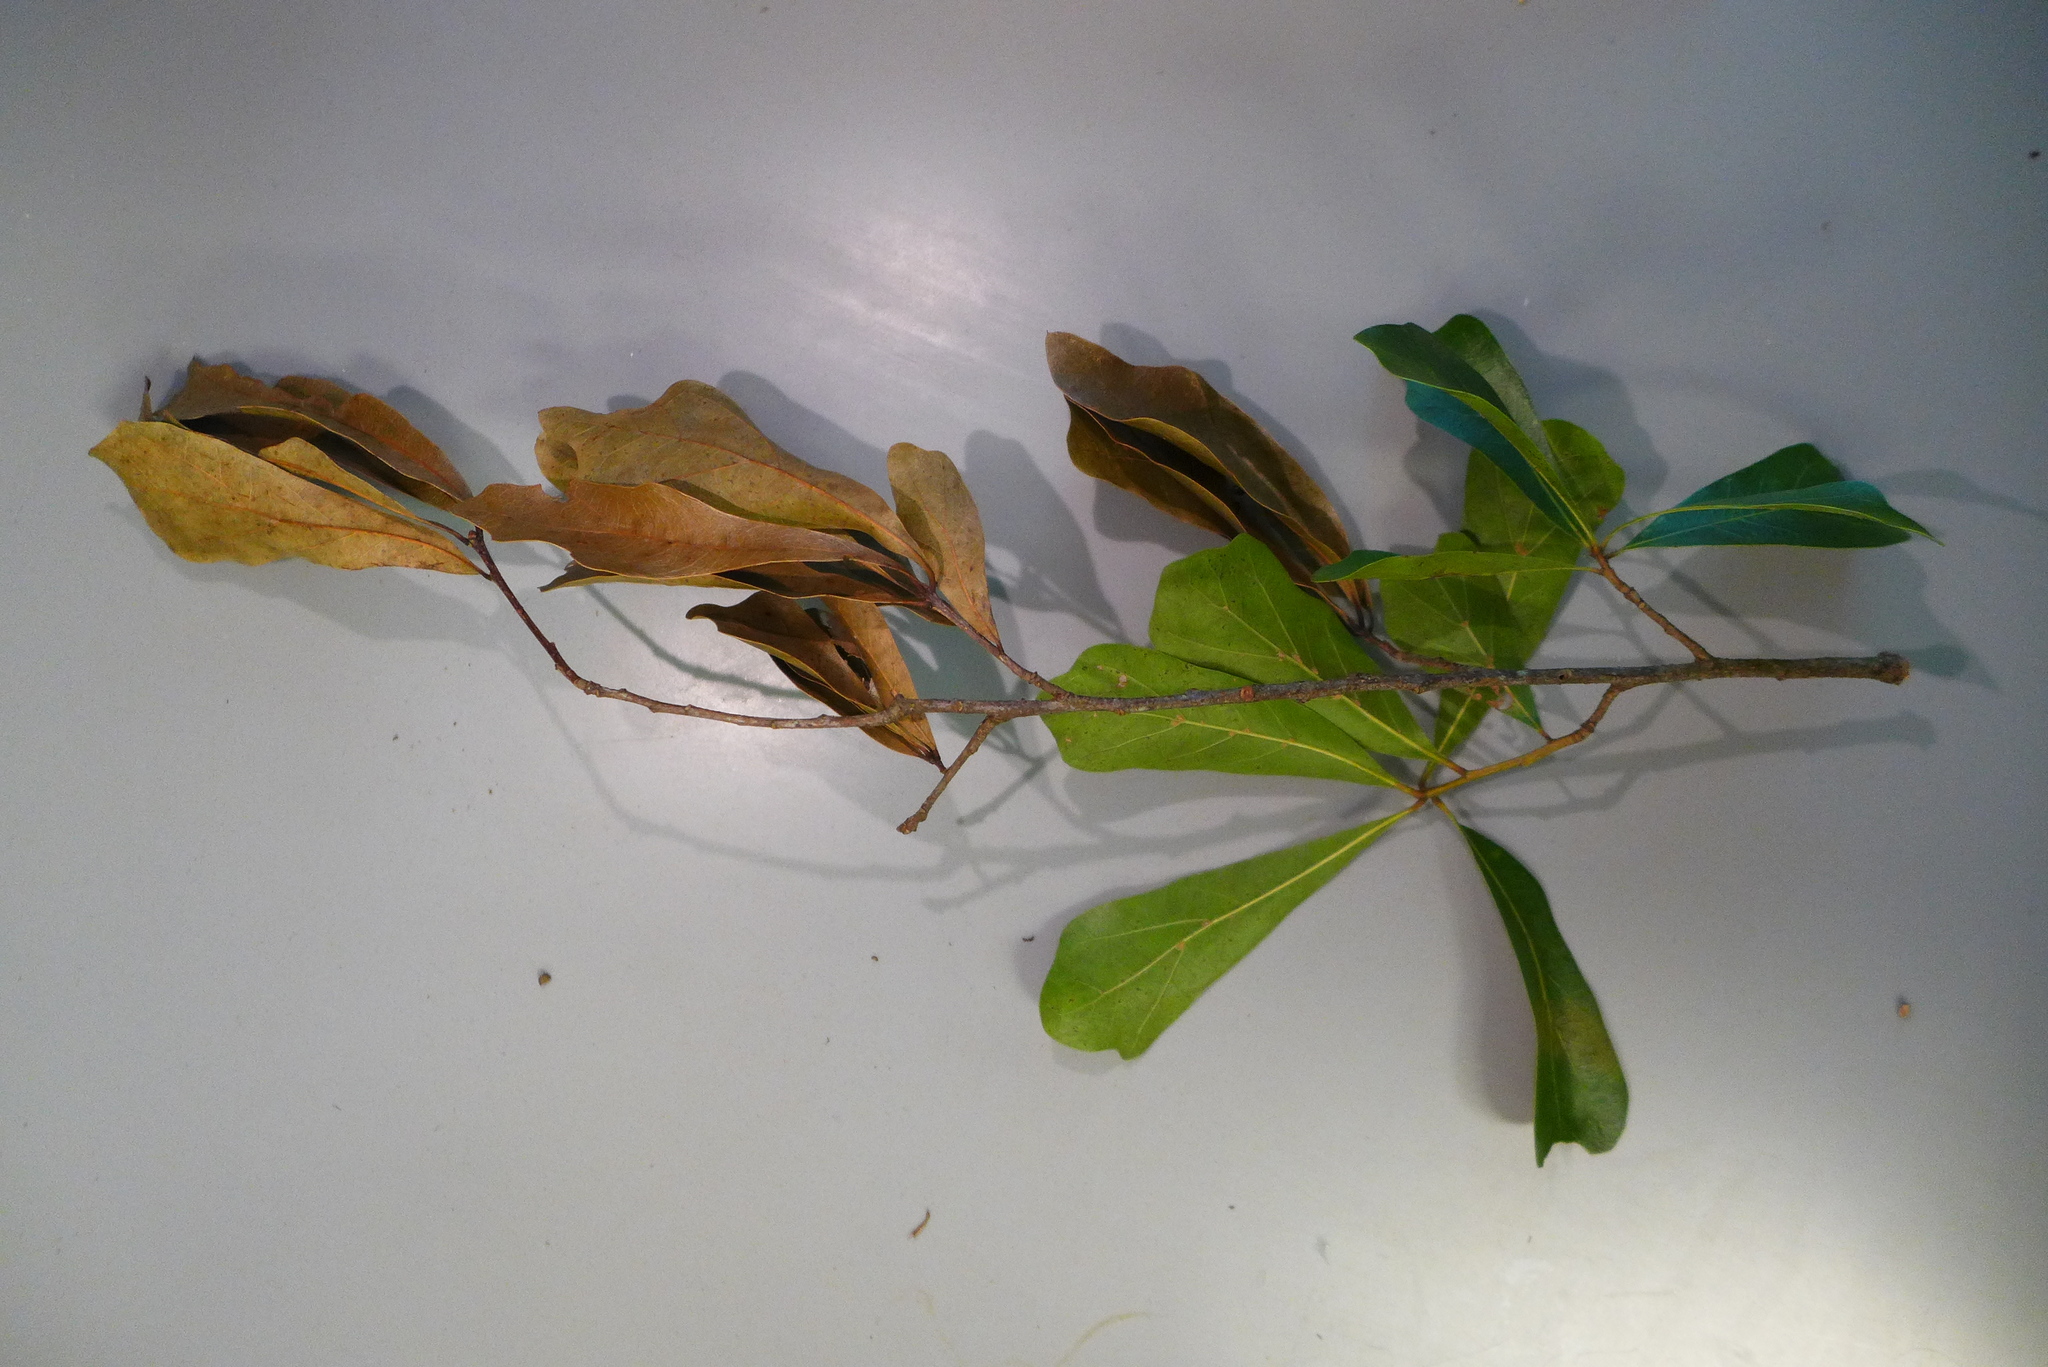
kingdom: Animalia
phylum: Arthropoda
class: Insecta
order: Coleoptera
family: Curculionidae
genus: Xylosandrus
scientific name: Xylosandrus compactus
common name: Black twig borer
